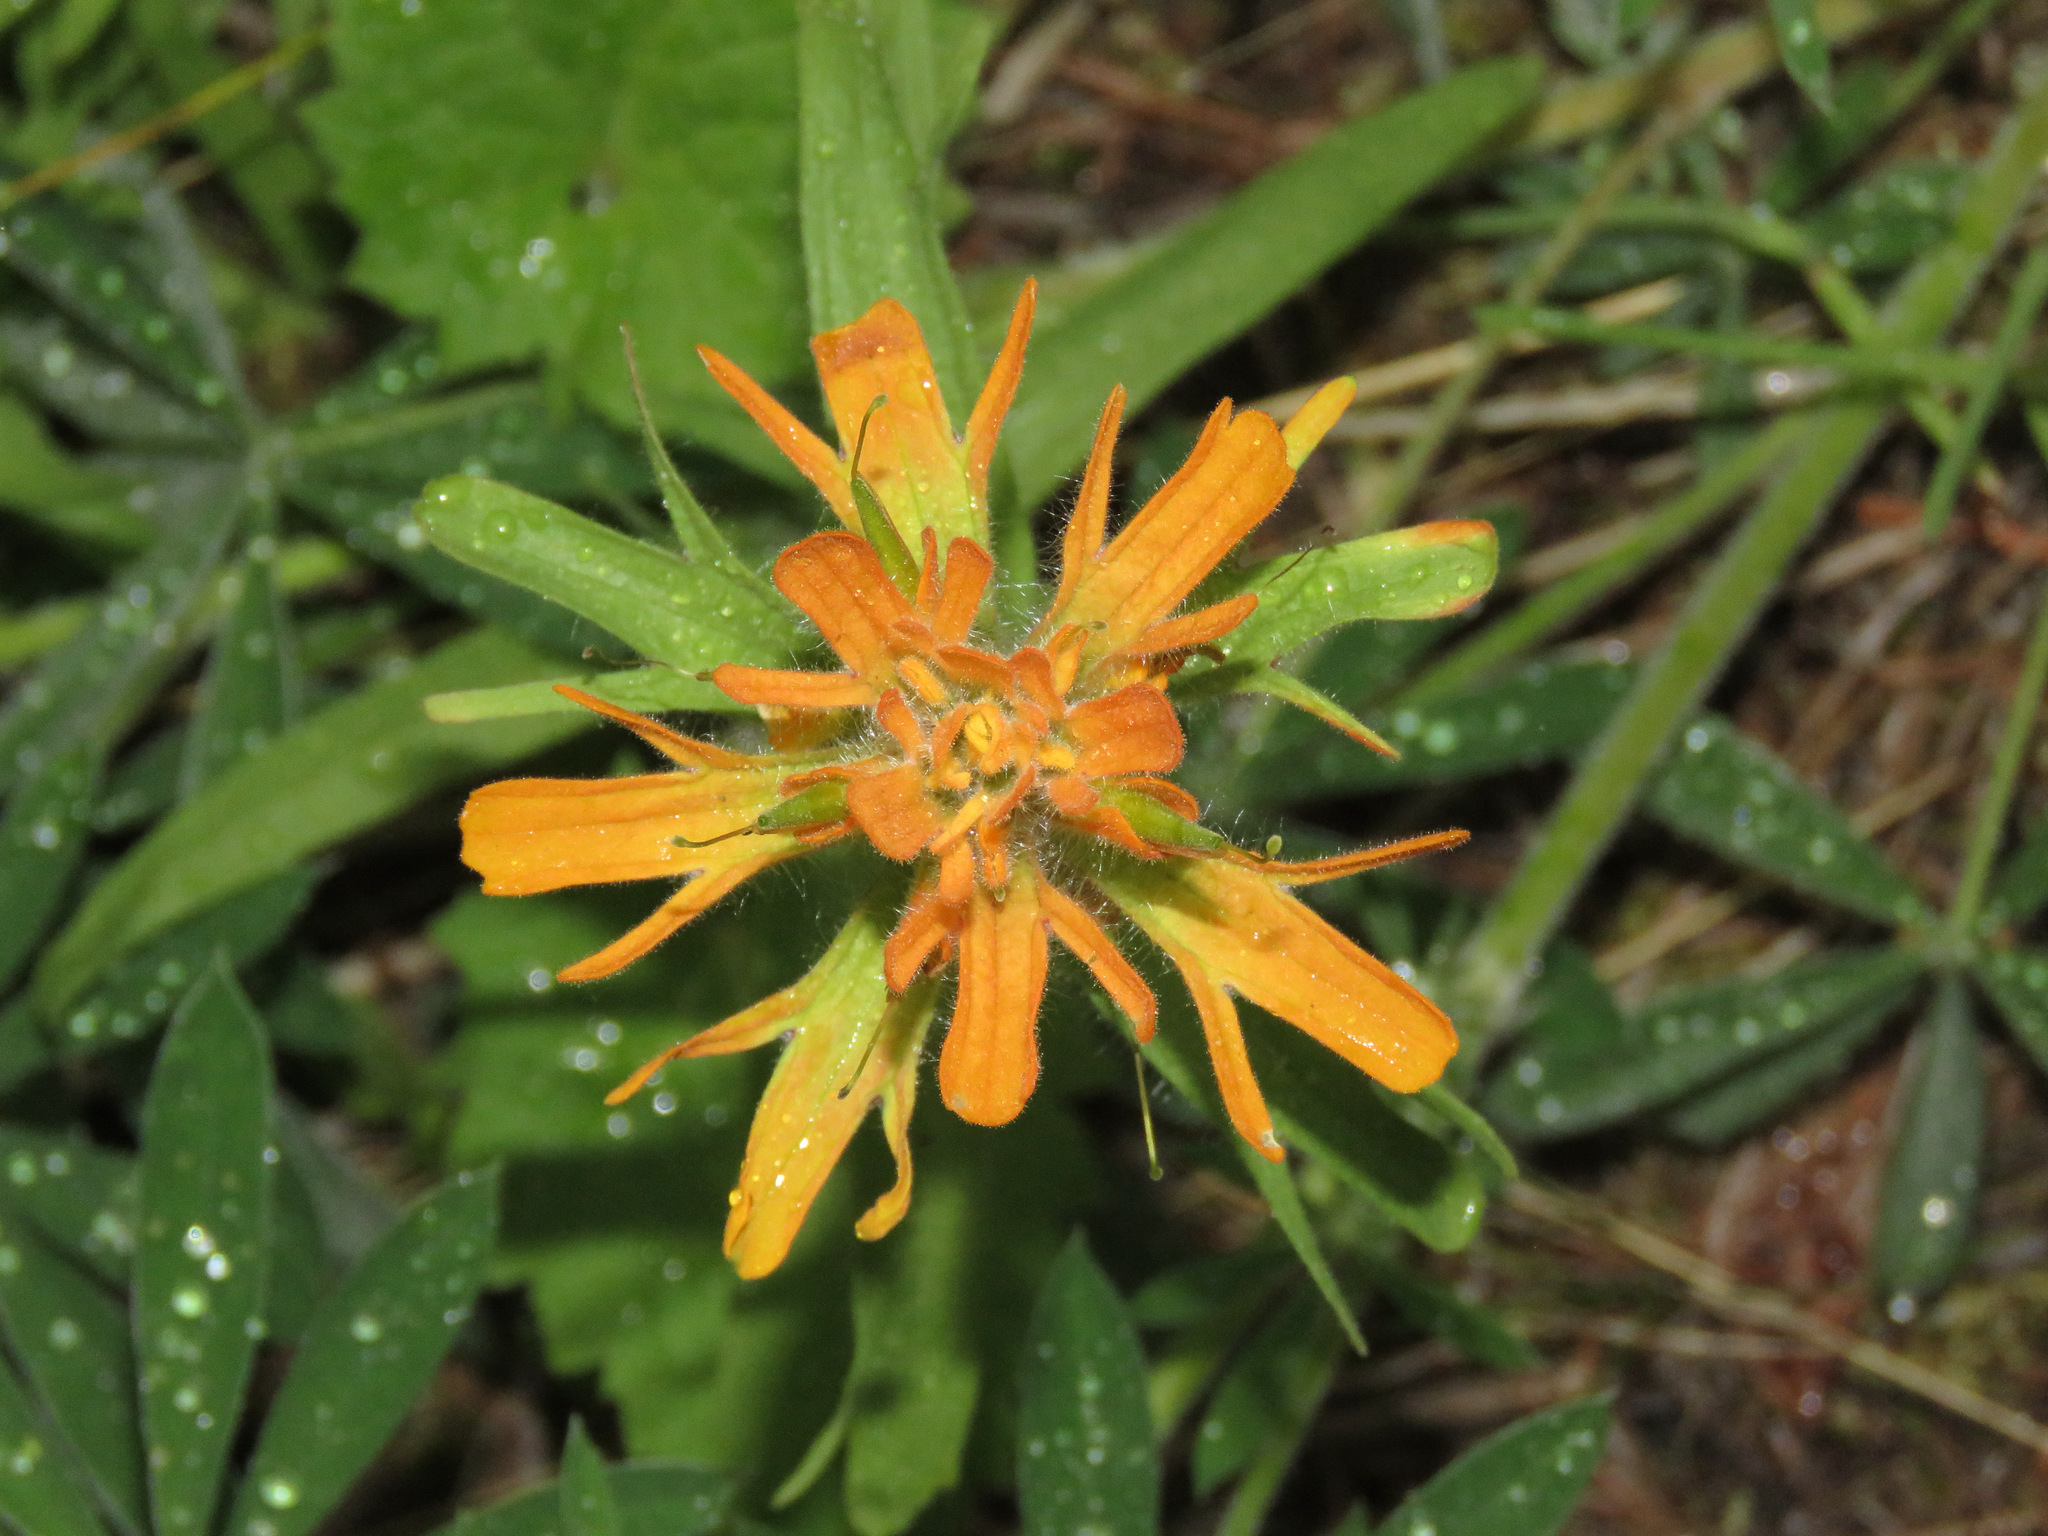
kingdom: Plantae
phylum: Tracheophyta
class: Magnoliopsida
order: Lamiales
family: Orobanchaceae
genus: Castilleja
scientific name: Castilleja hispida
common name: Bristly paintbrush
